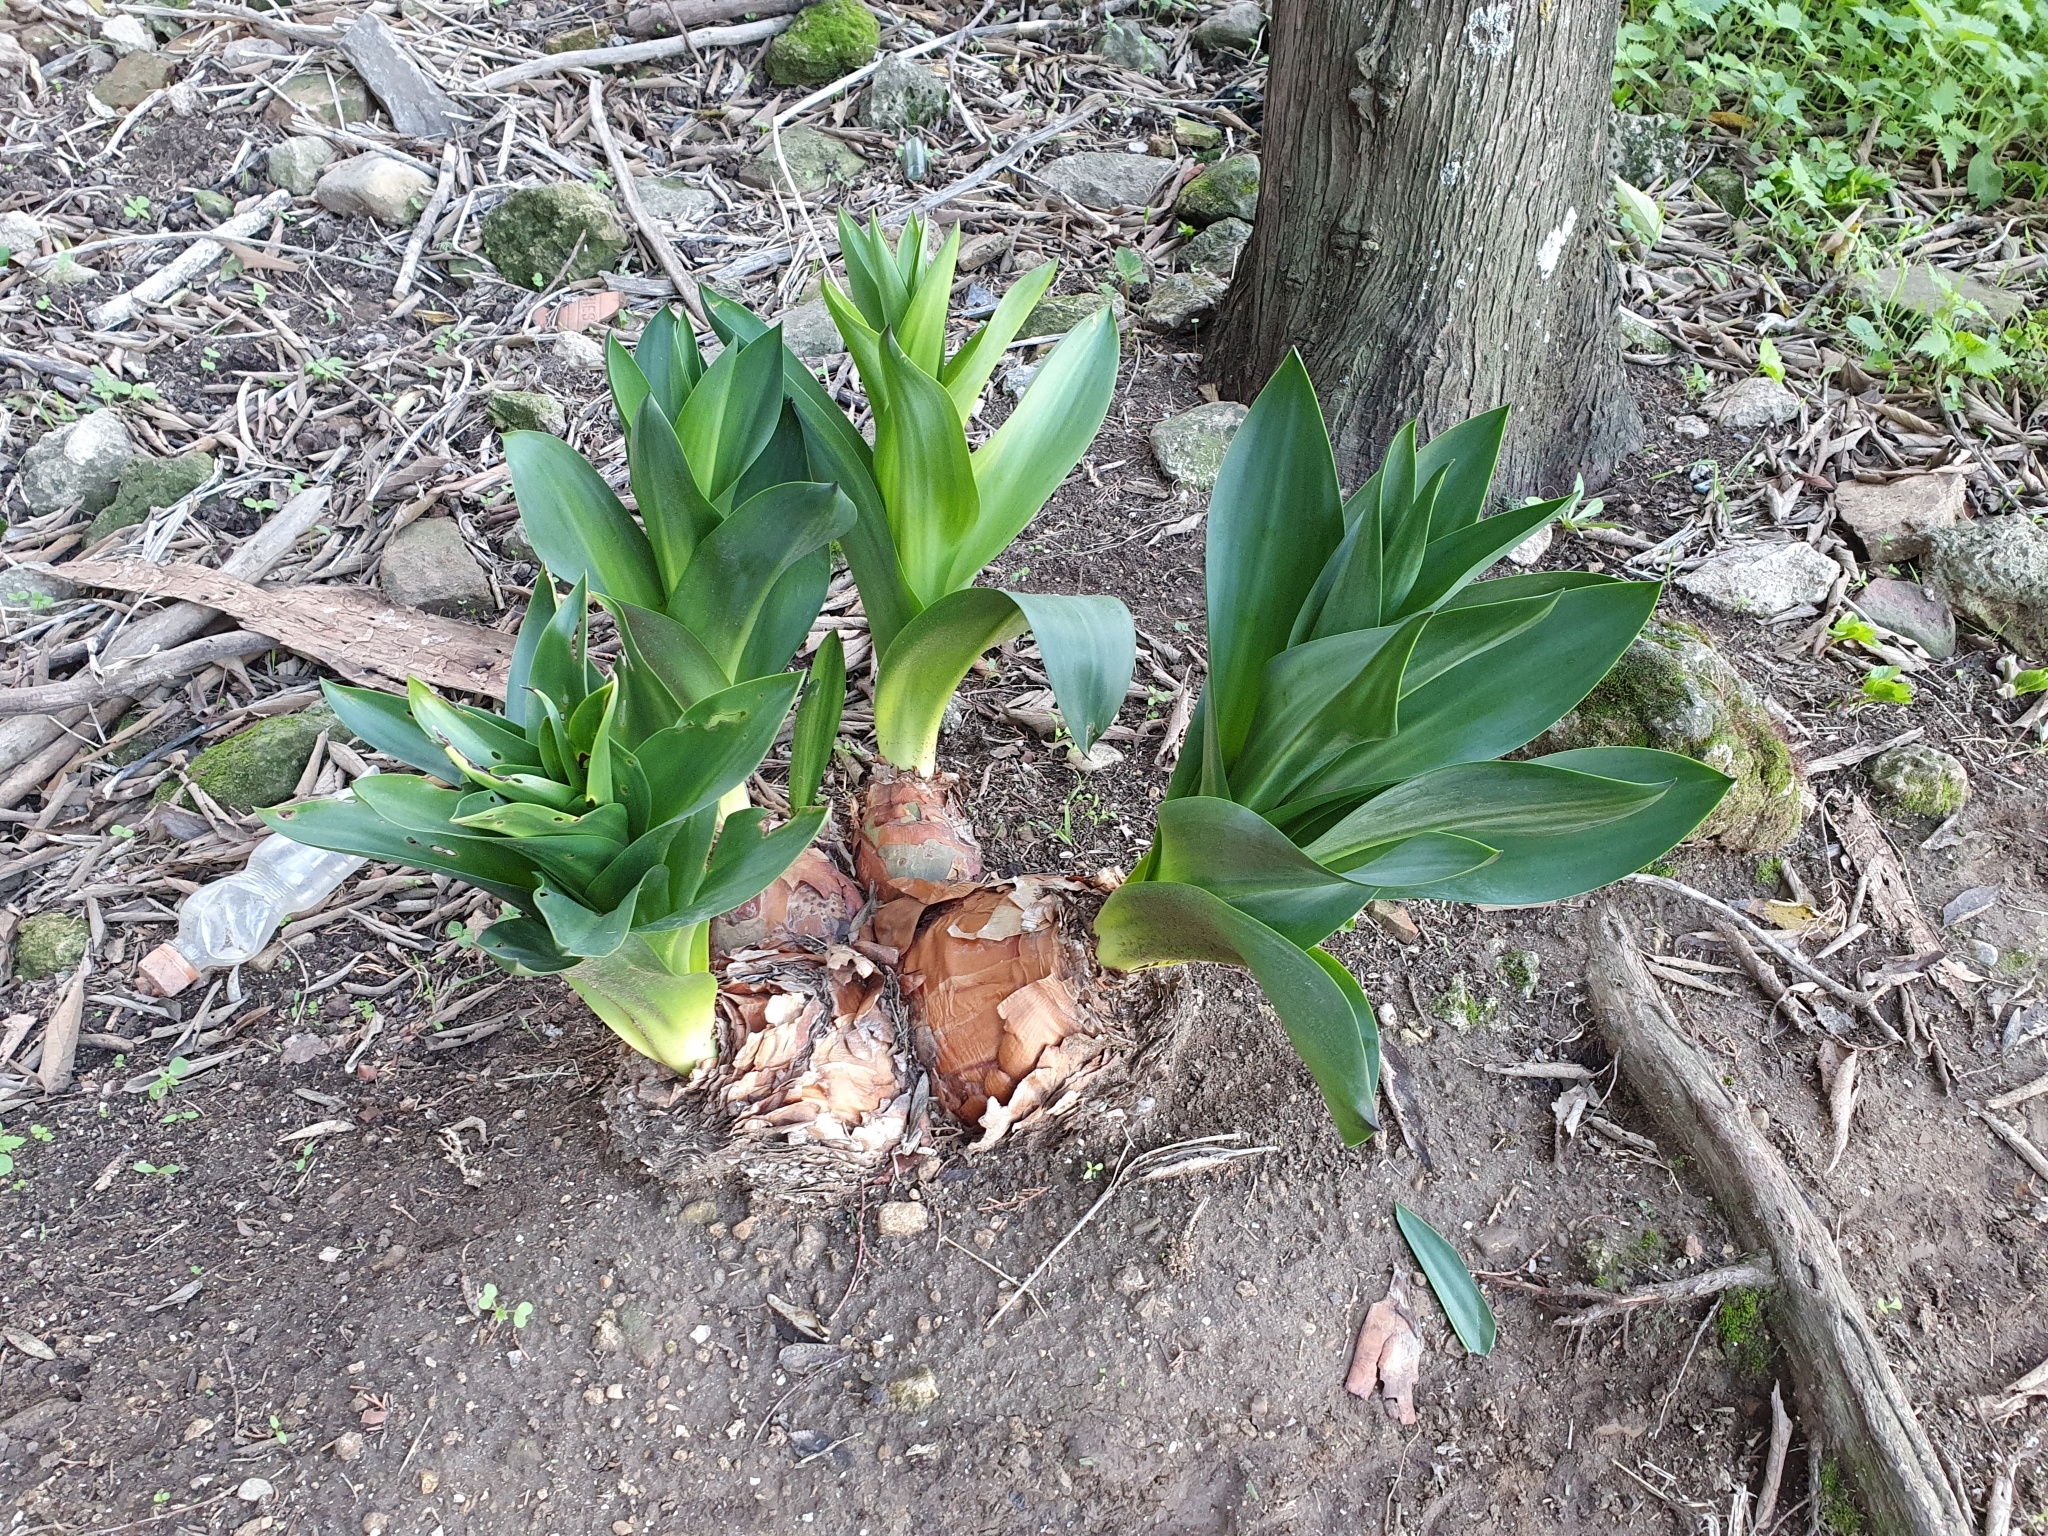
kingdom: Plantae
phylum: Tracheophyta
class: Liliopsida
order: Asparagales
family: Asparagaceae
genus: Drimia
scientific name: Drimia numidica
